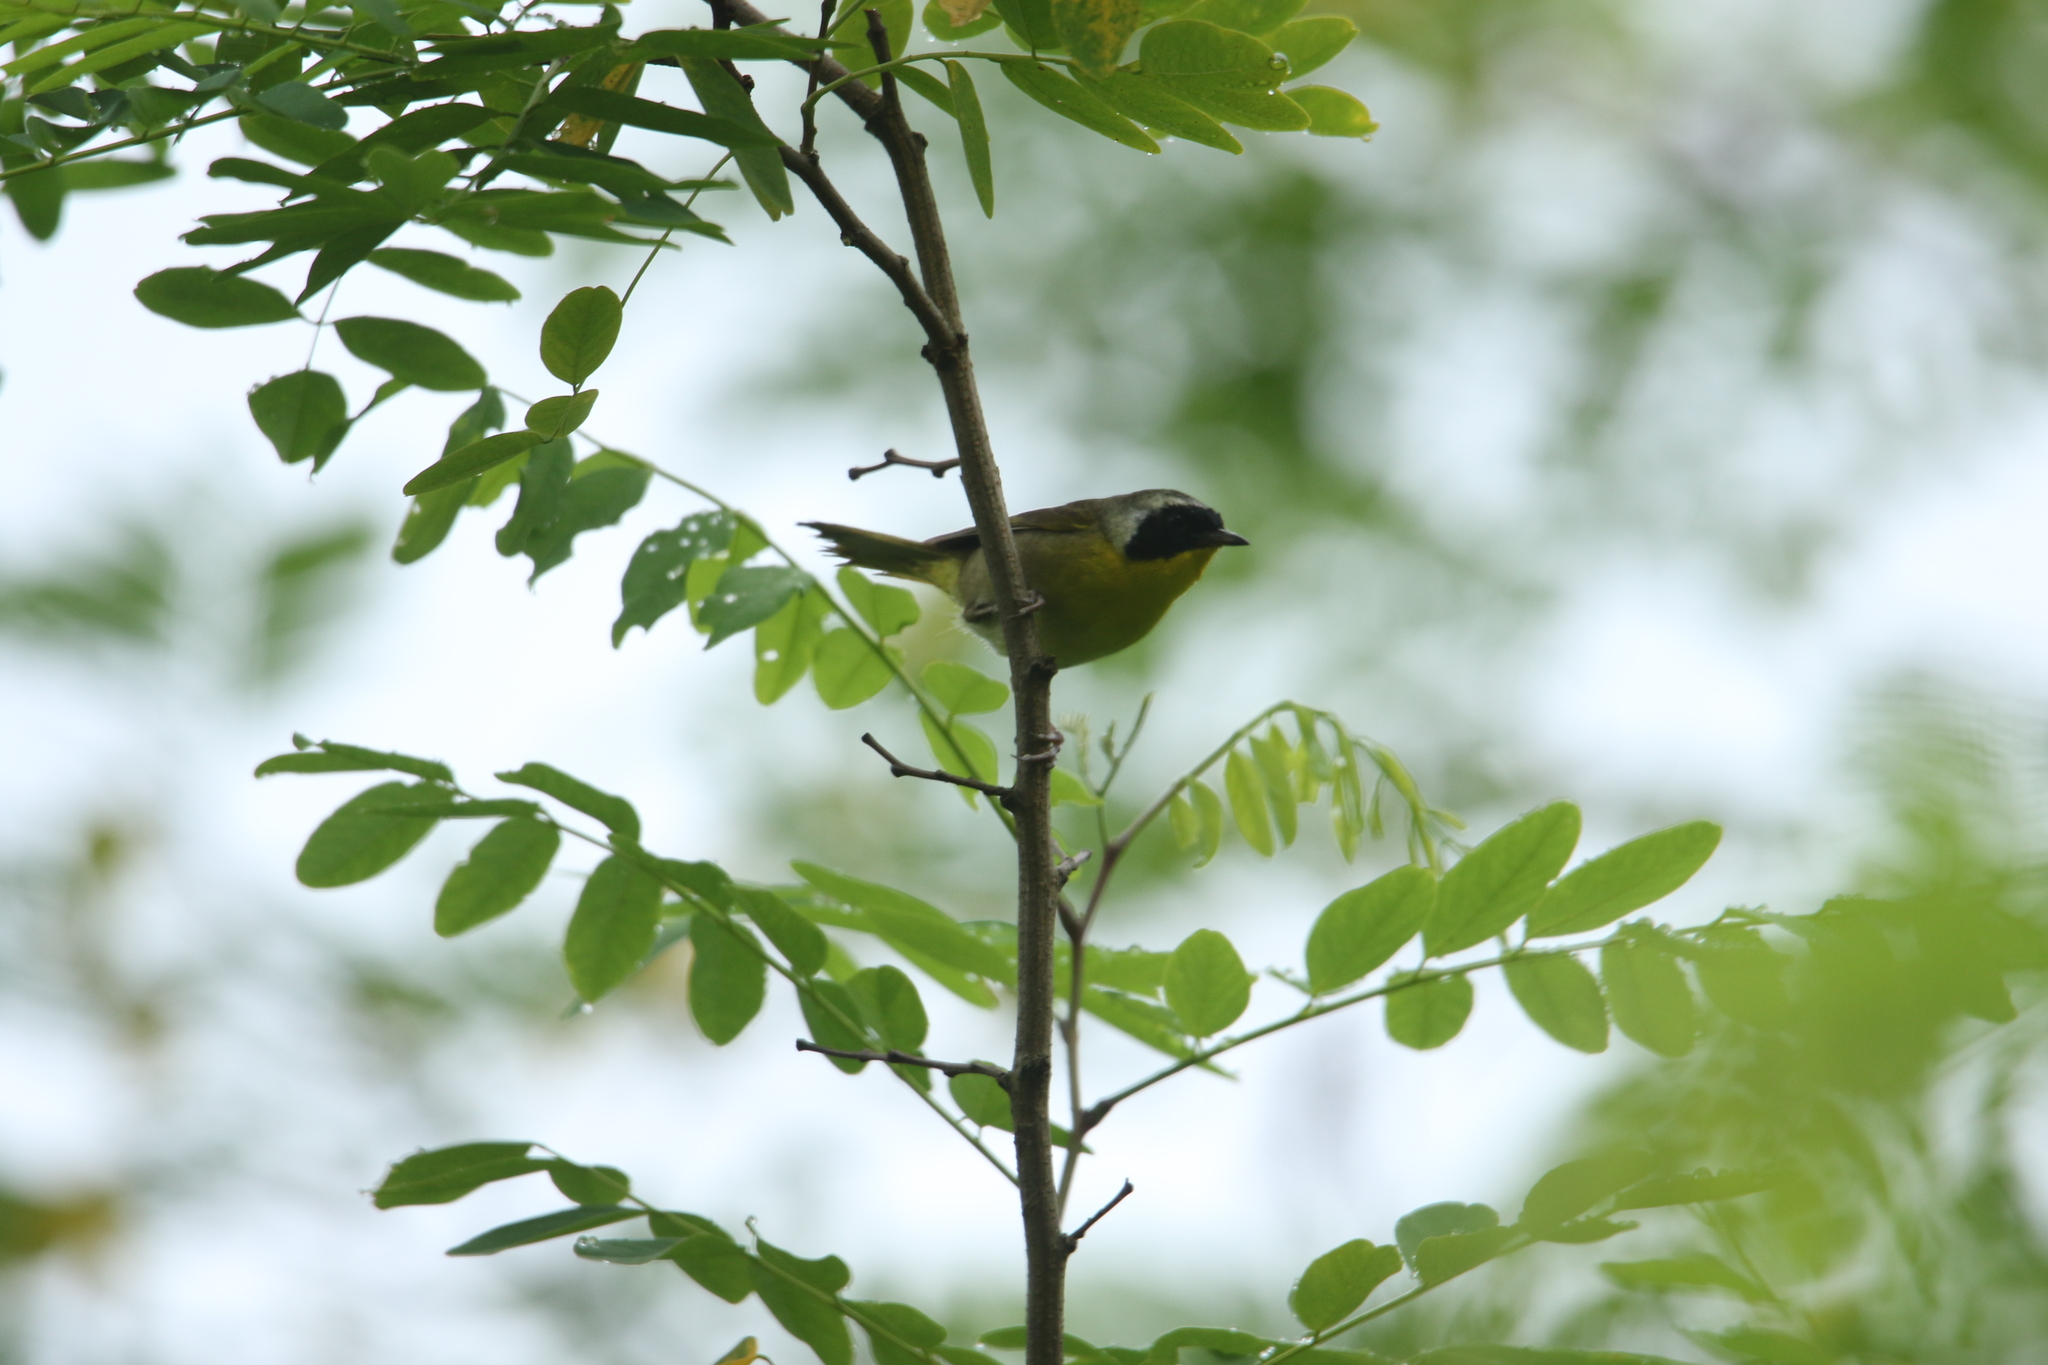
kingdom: Animalia
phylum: Chordata
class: Aves
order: Passeriformes
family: Parulidae
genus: Geothlypis
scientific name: Geothlypis trichas
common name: Common yellowthroat
